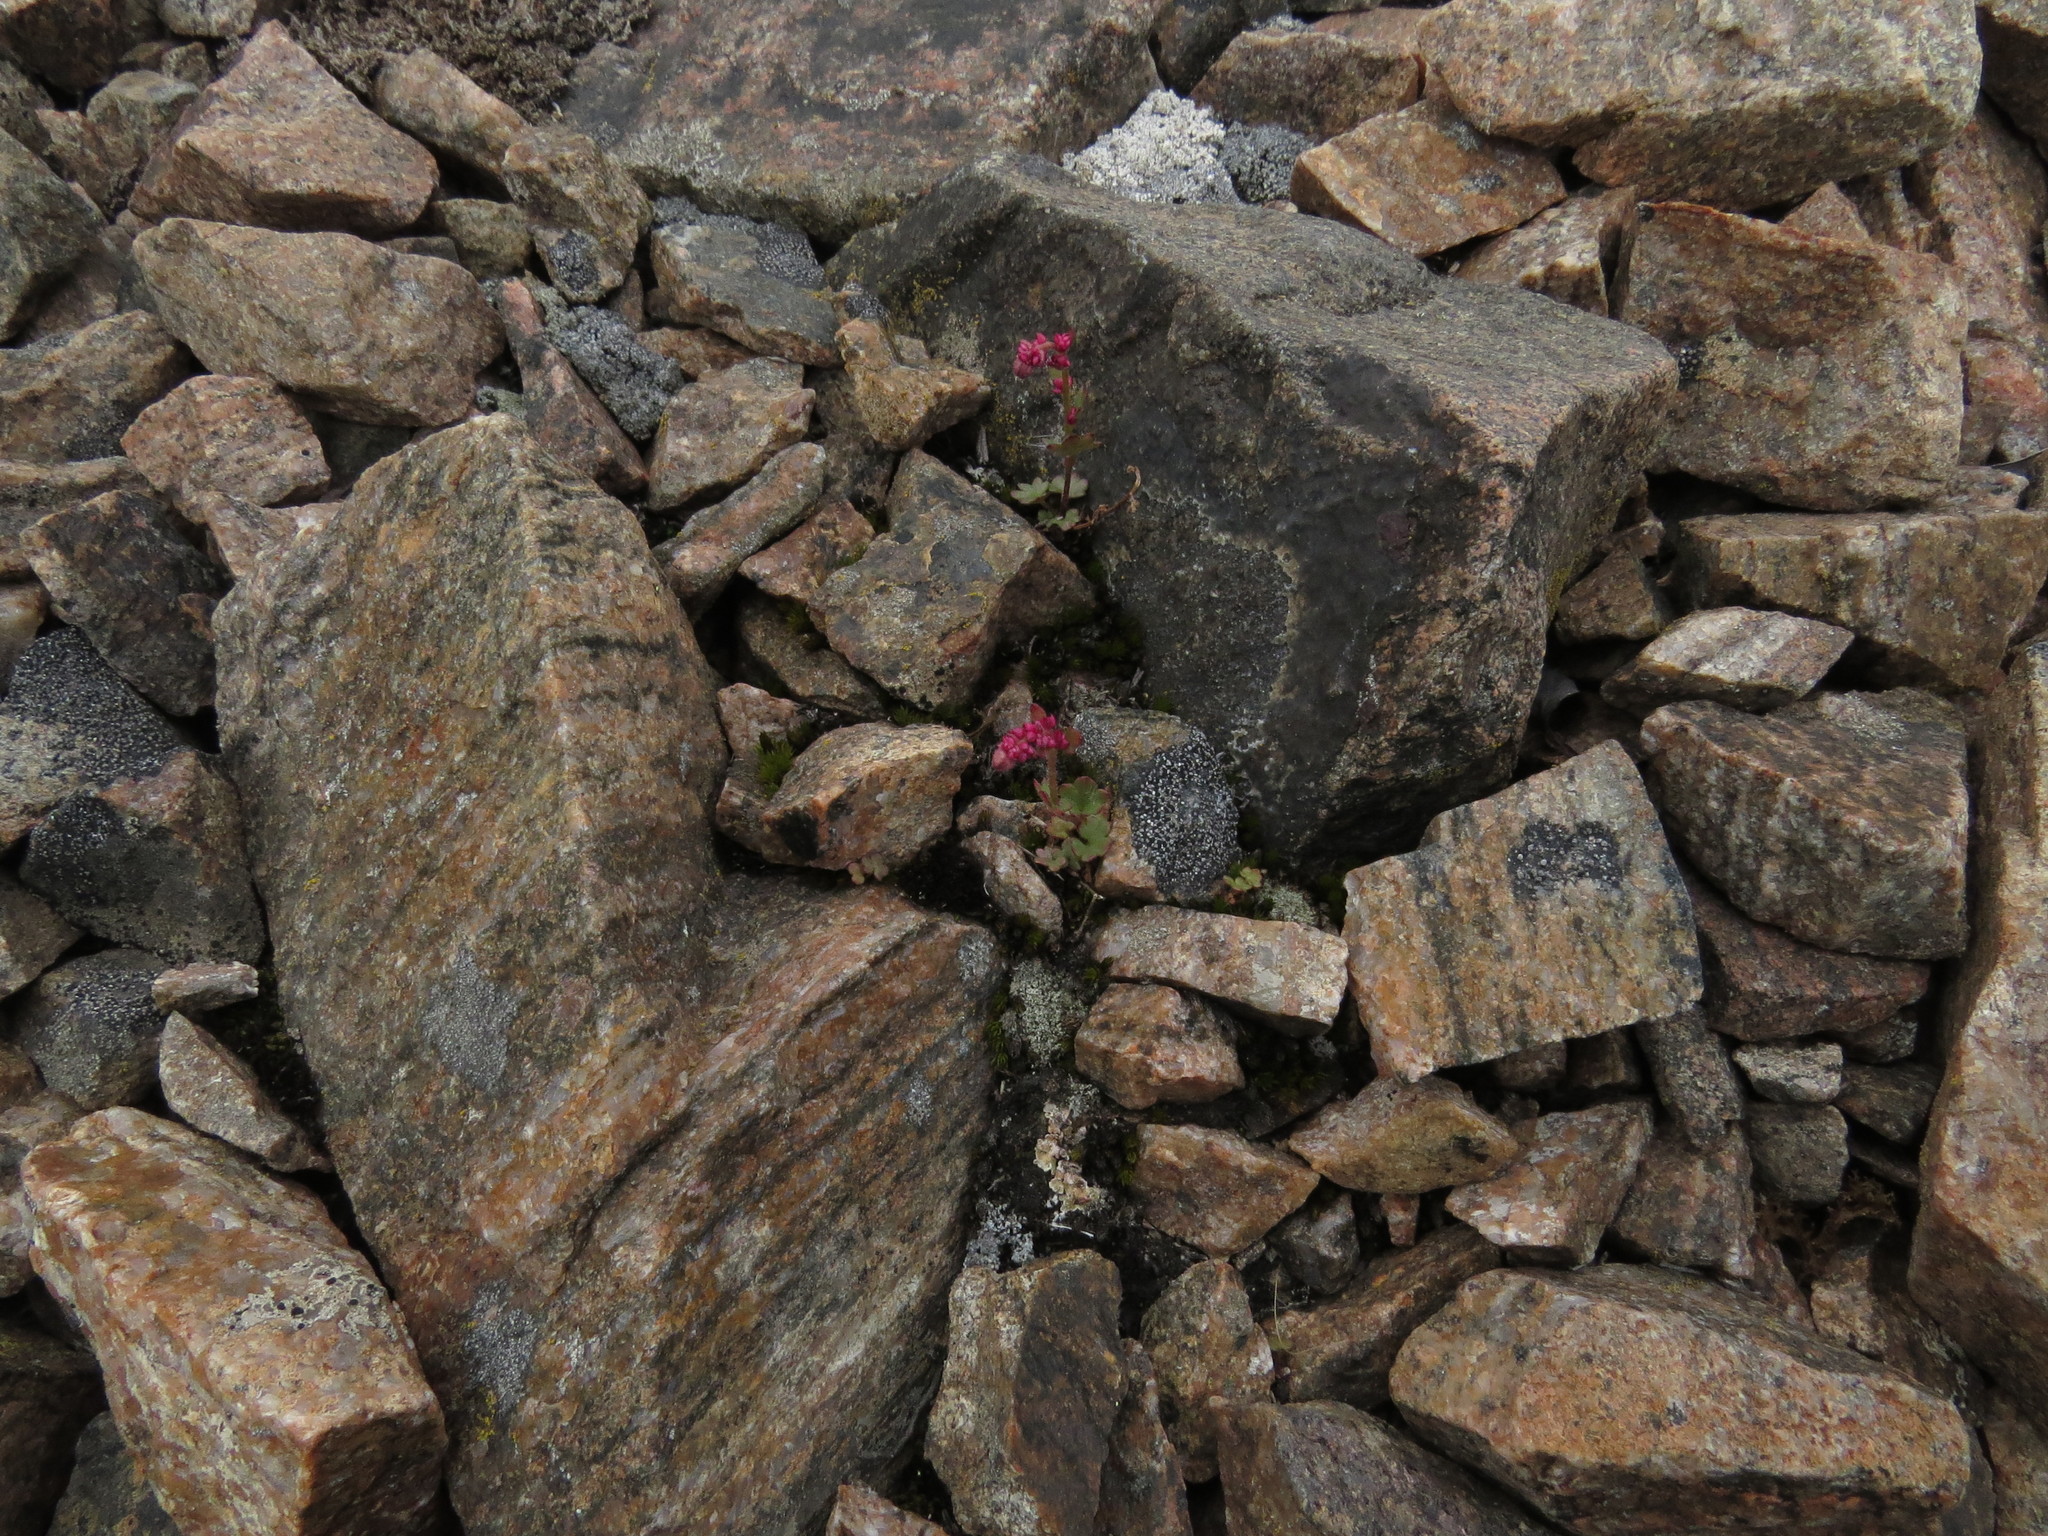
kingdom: Plantae
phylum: Tracheophyta
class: Magnoliopsida
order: Saxifragales
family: Saxifragaceae
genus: Saxifraga
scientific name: Saxifraga cernua
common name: Drooping saxifrage
